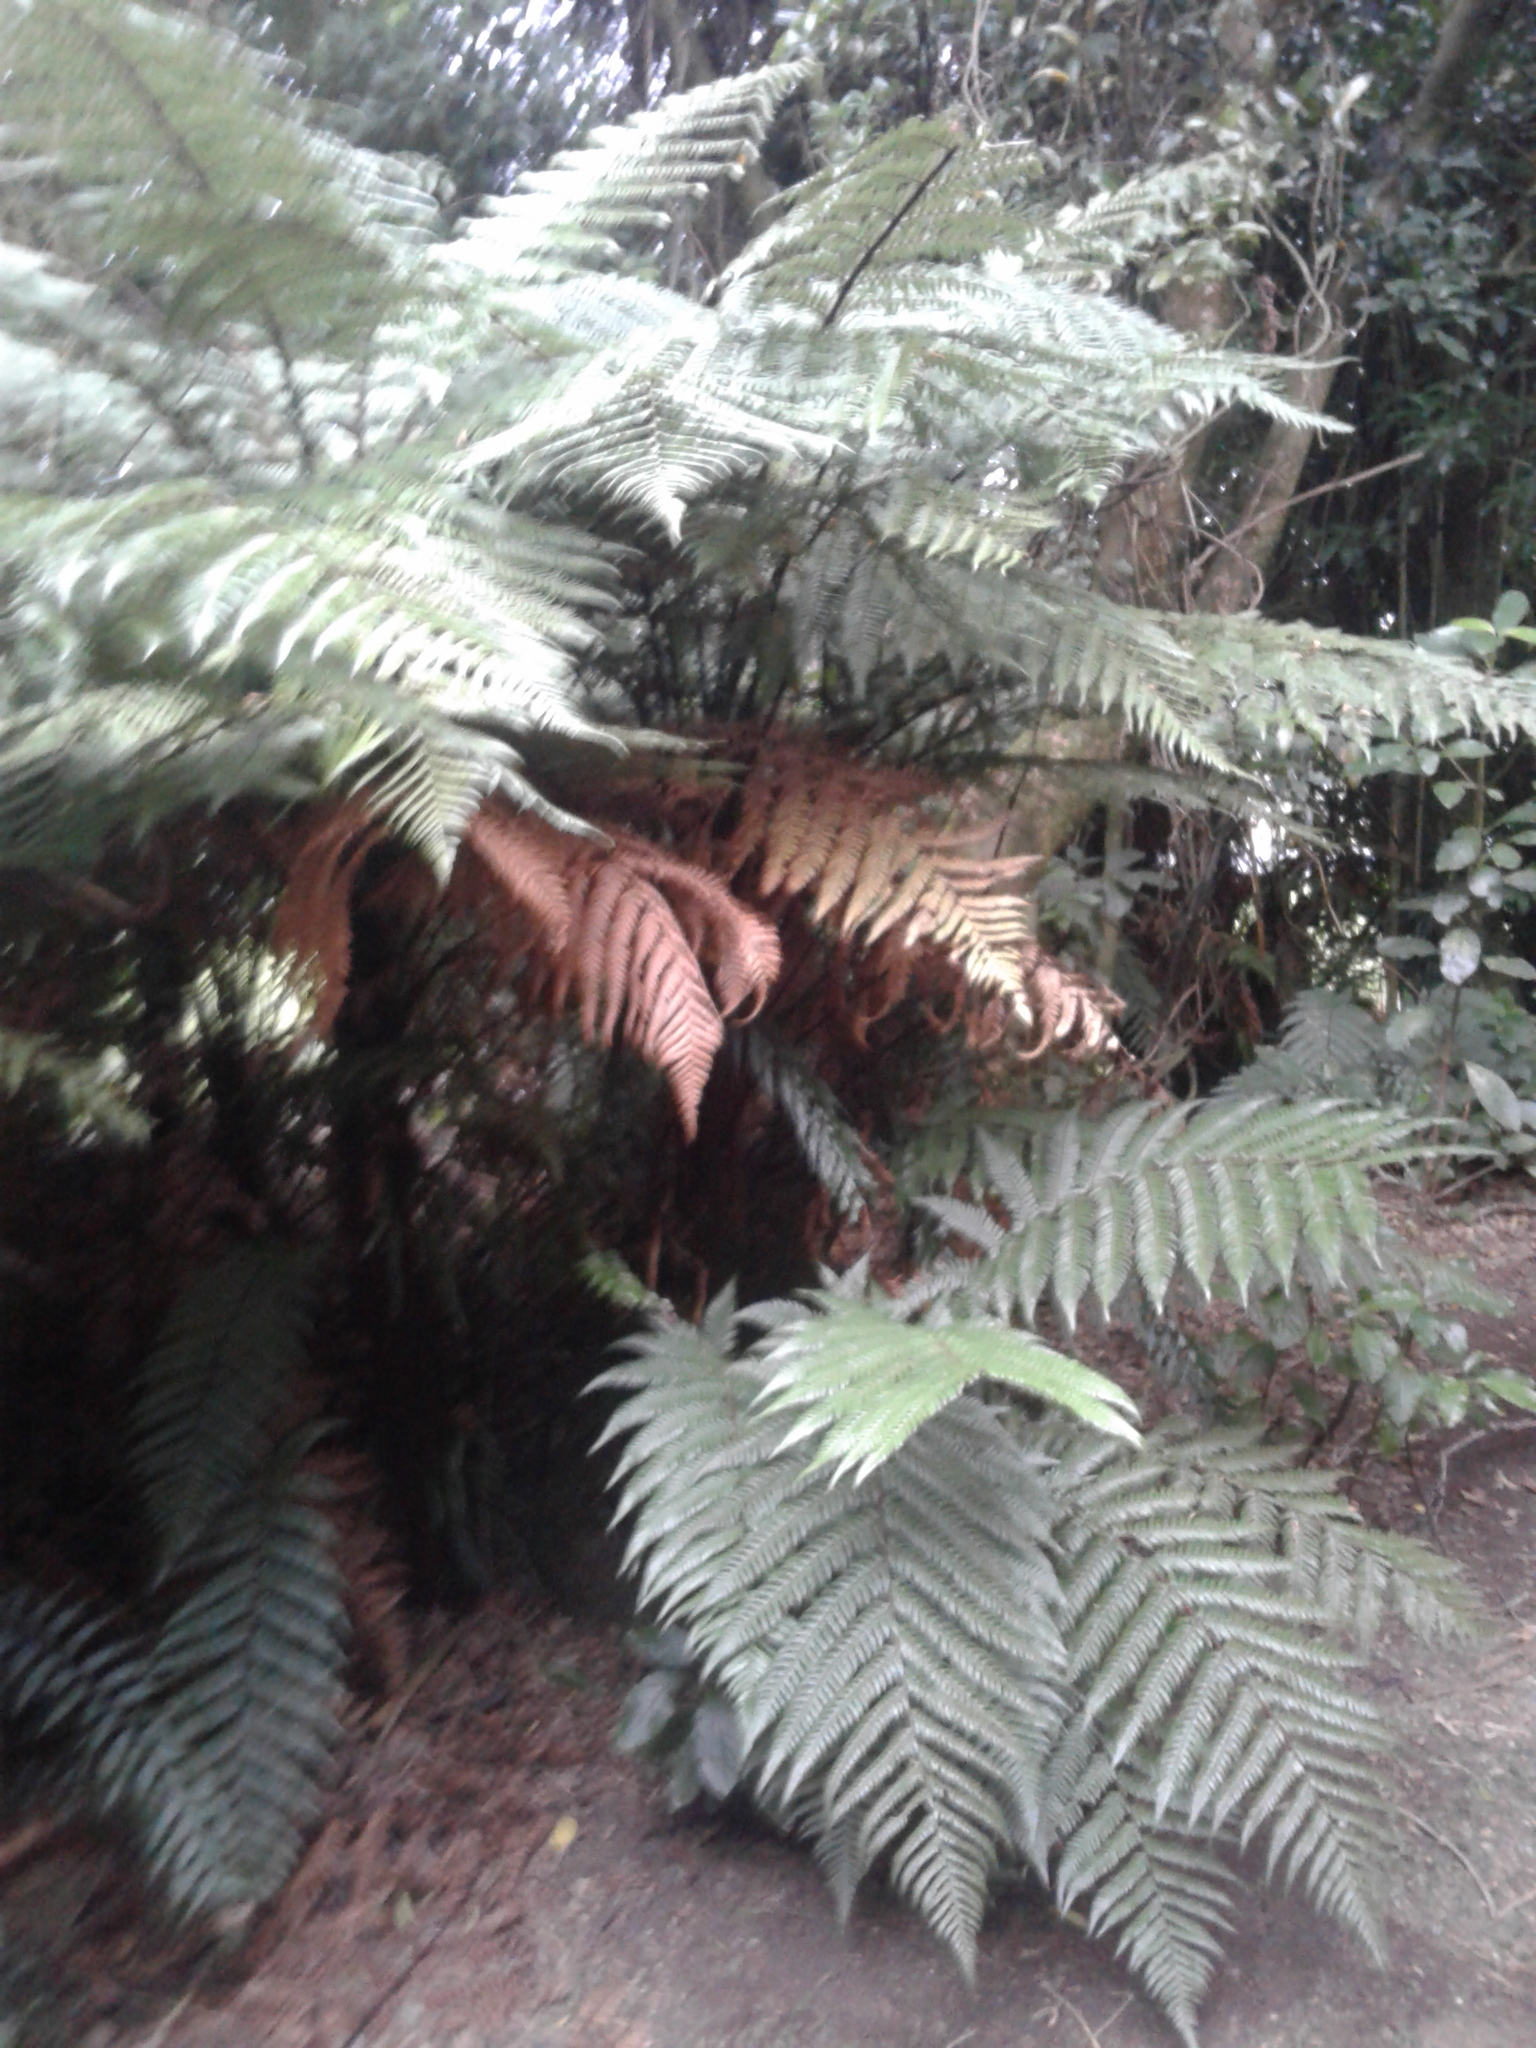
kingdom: Plantae
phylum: Tracheophyta
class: Polypodiopsida
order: Cyatheales
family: Dicksoniaceae
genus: Dicksonia
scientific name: Dicksonia squarrosa
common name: Hard treefern
